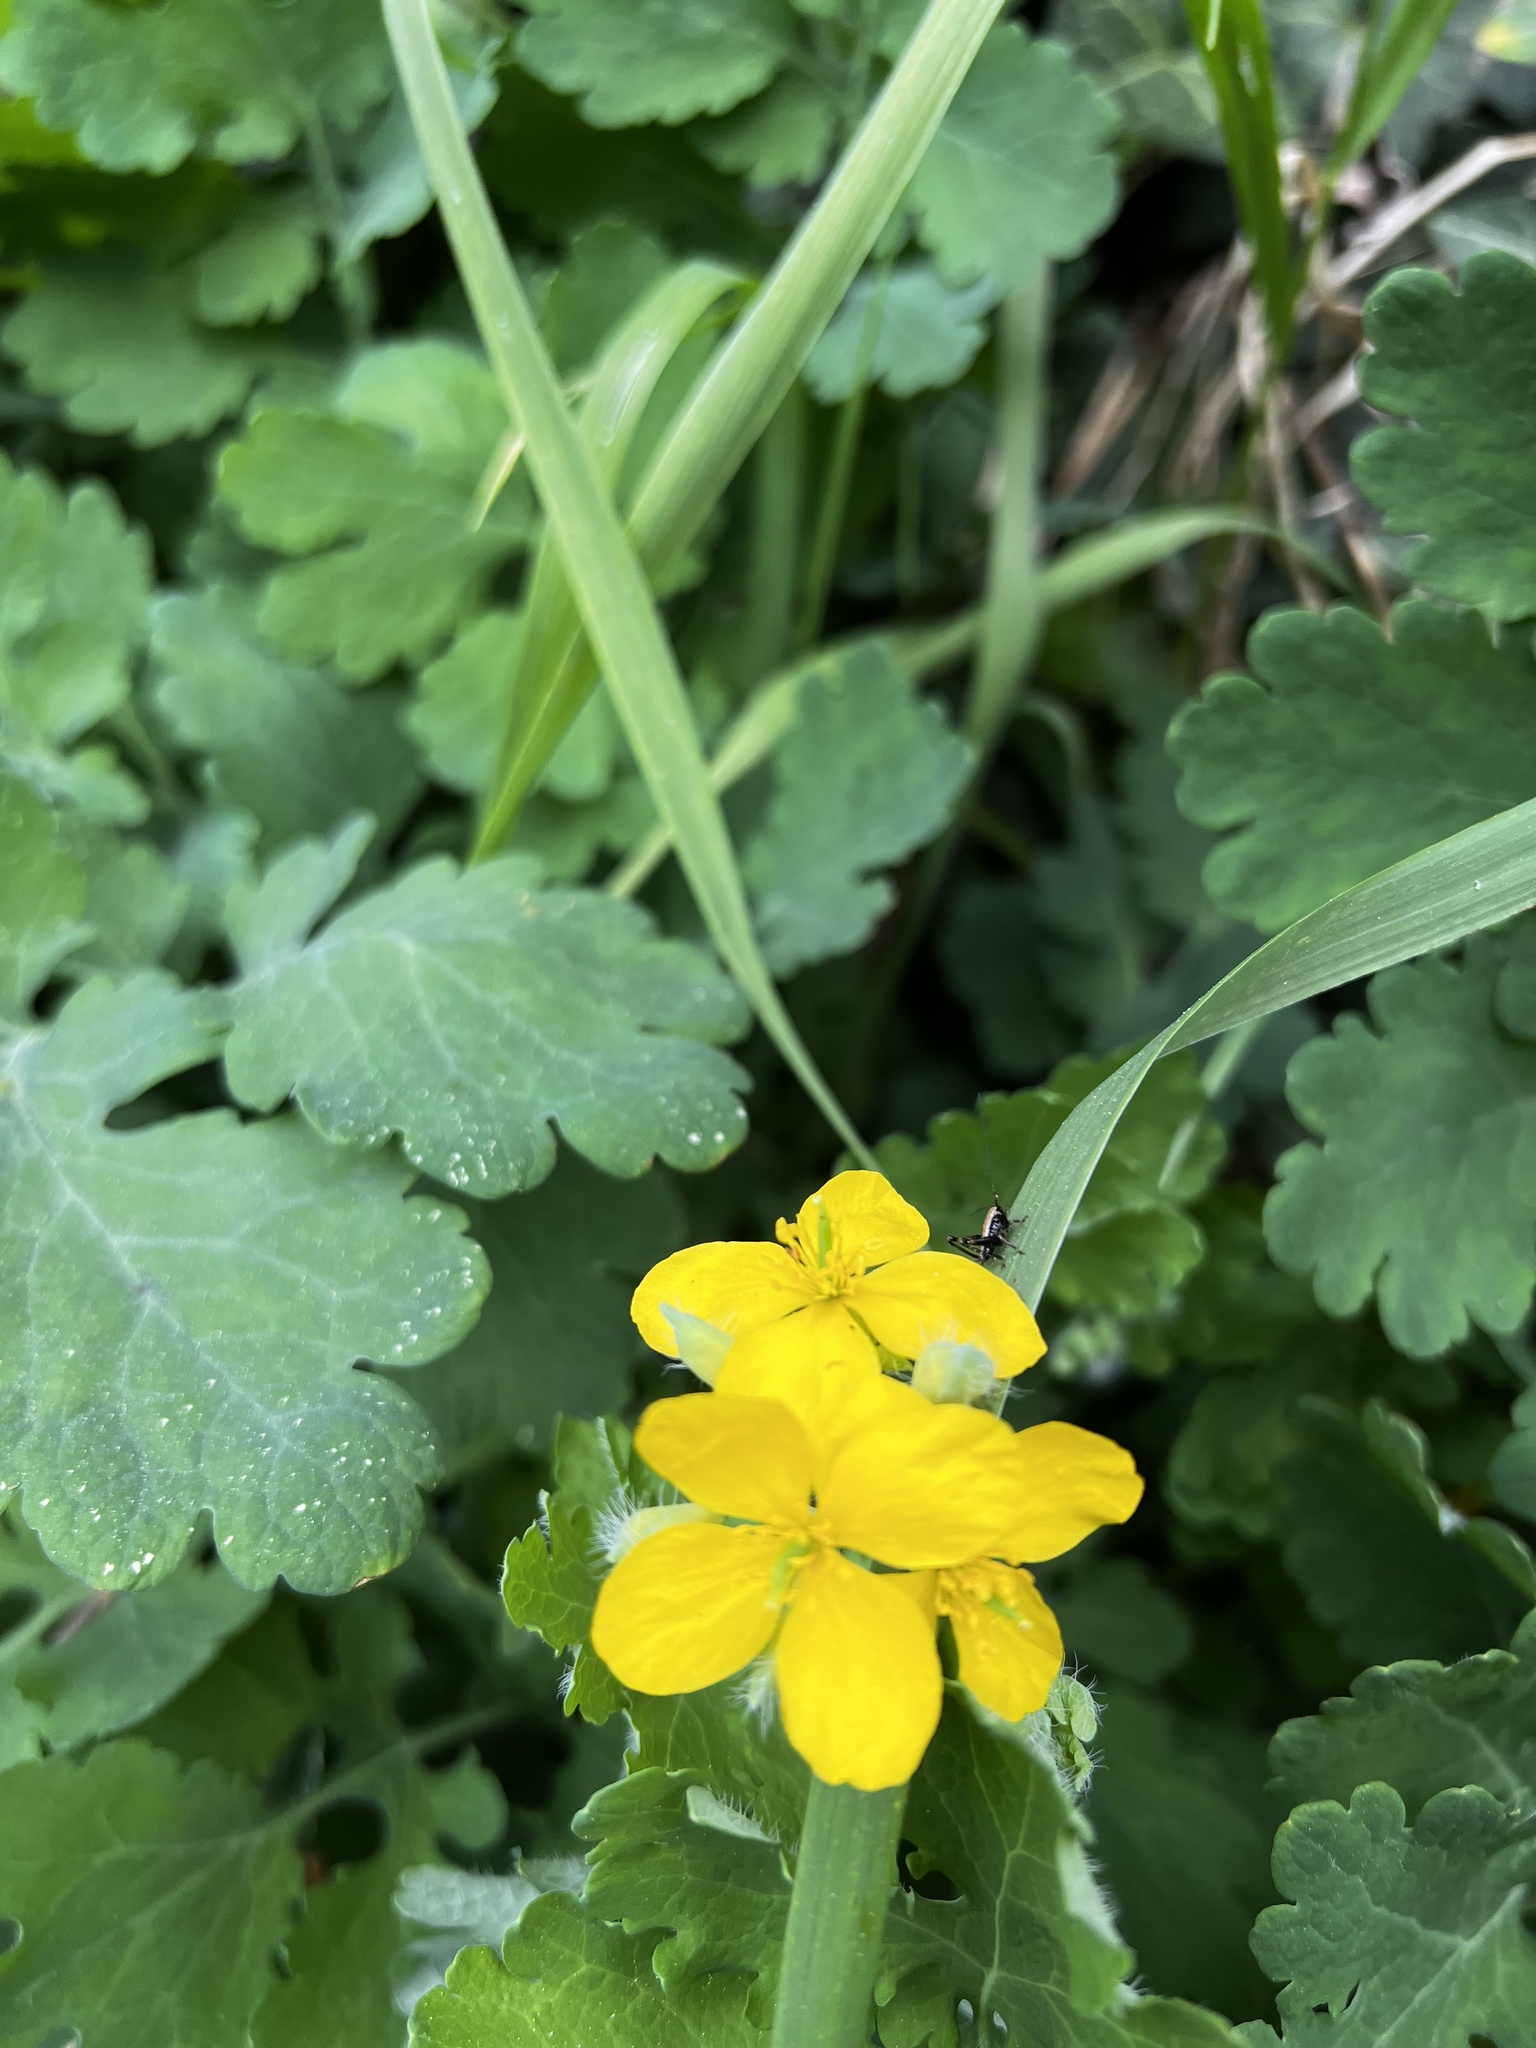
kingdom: Plantae
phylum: Tracheophyta
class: Magnoliopsida
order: Ranunculales
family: Papaveraceae
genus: Chelidonium
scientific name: Chelidonium majus
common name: Greater celandine
